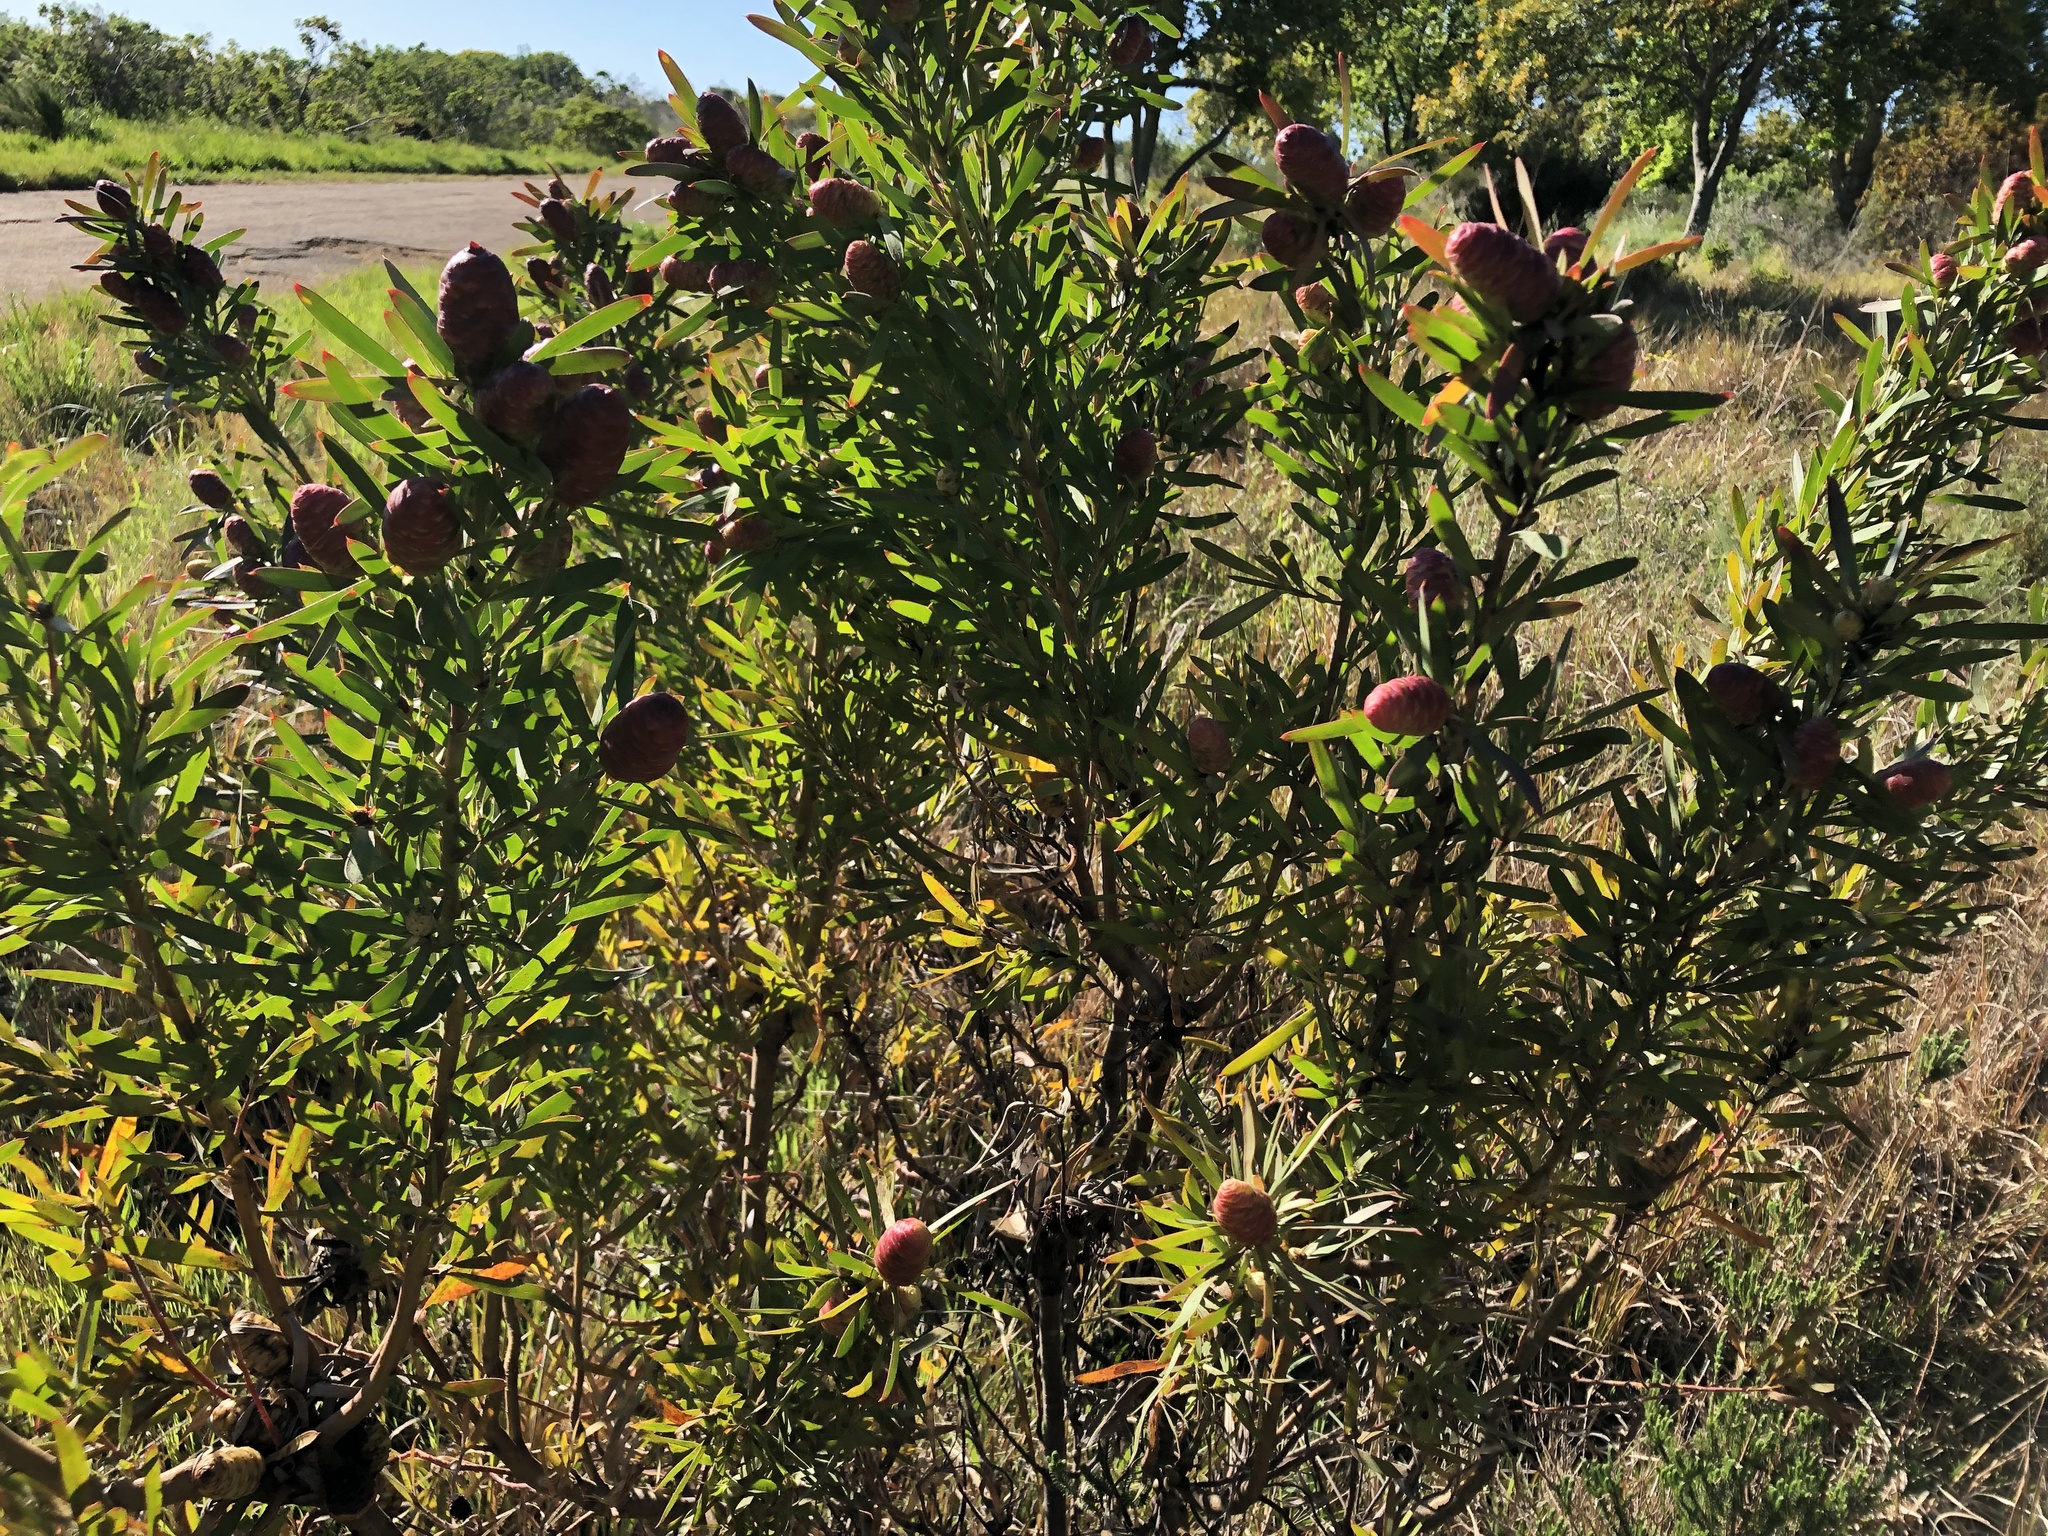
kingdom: Plantae
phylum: Tracheophyta
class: Magnoliopsida
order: Proteales
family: Proteaceae
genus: Leucadendron
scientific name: Leucadendron macowanii
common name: Acacia-leaf conebush
